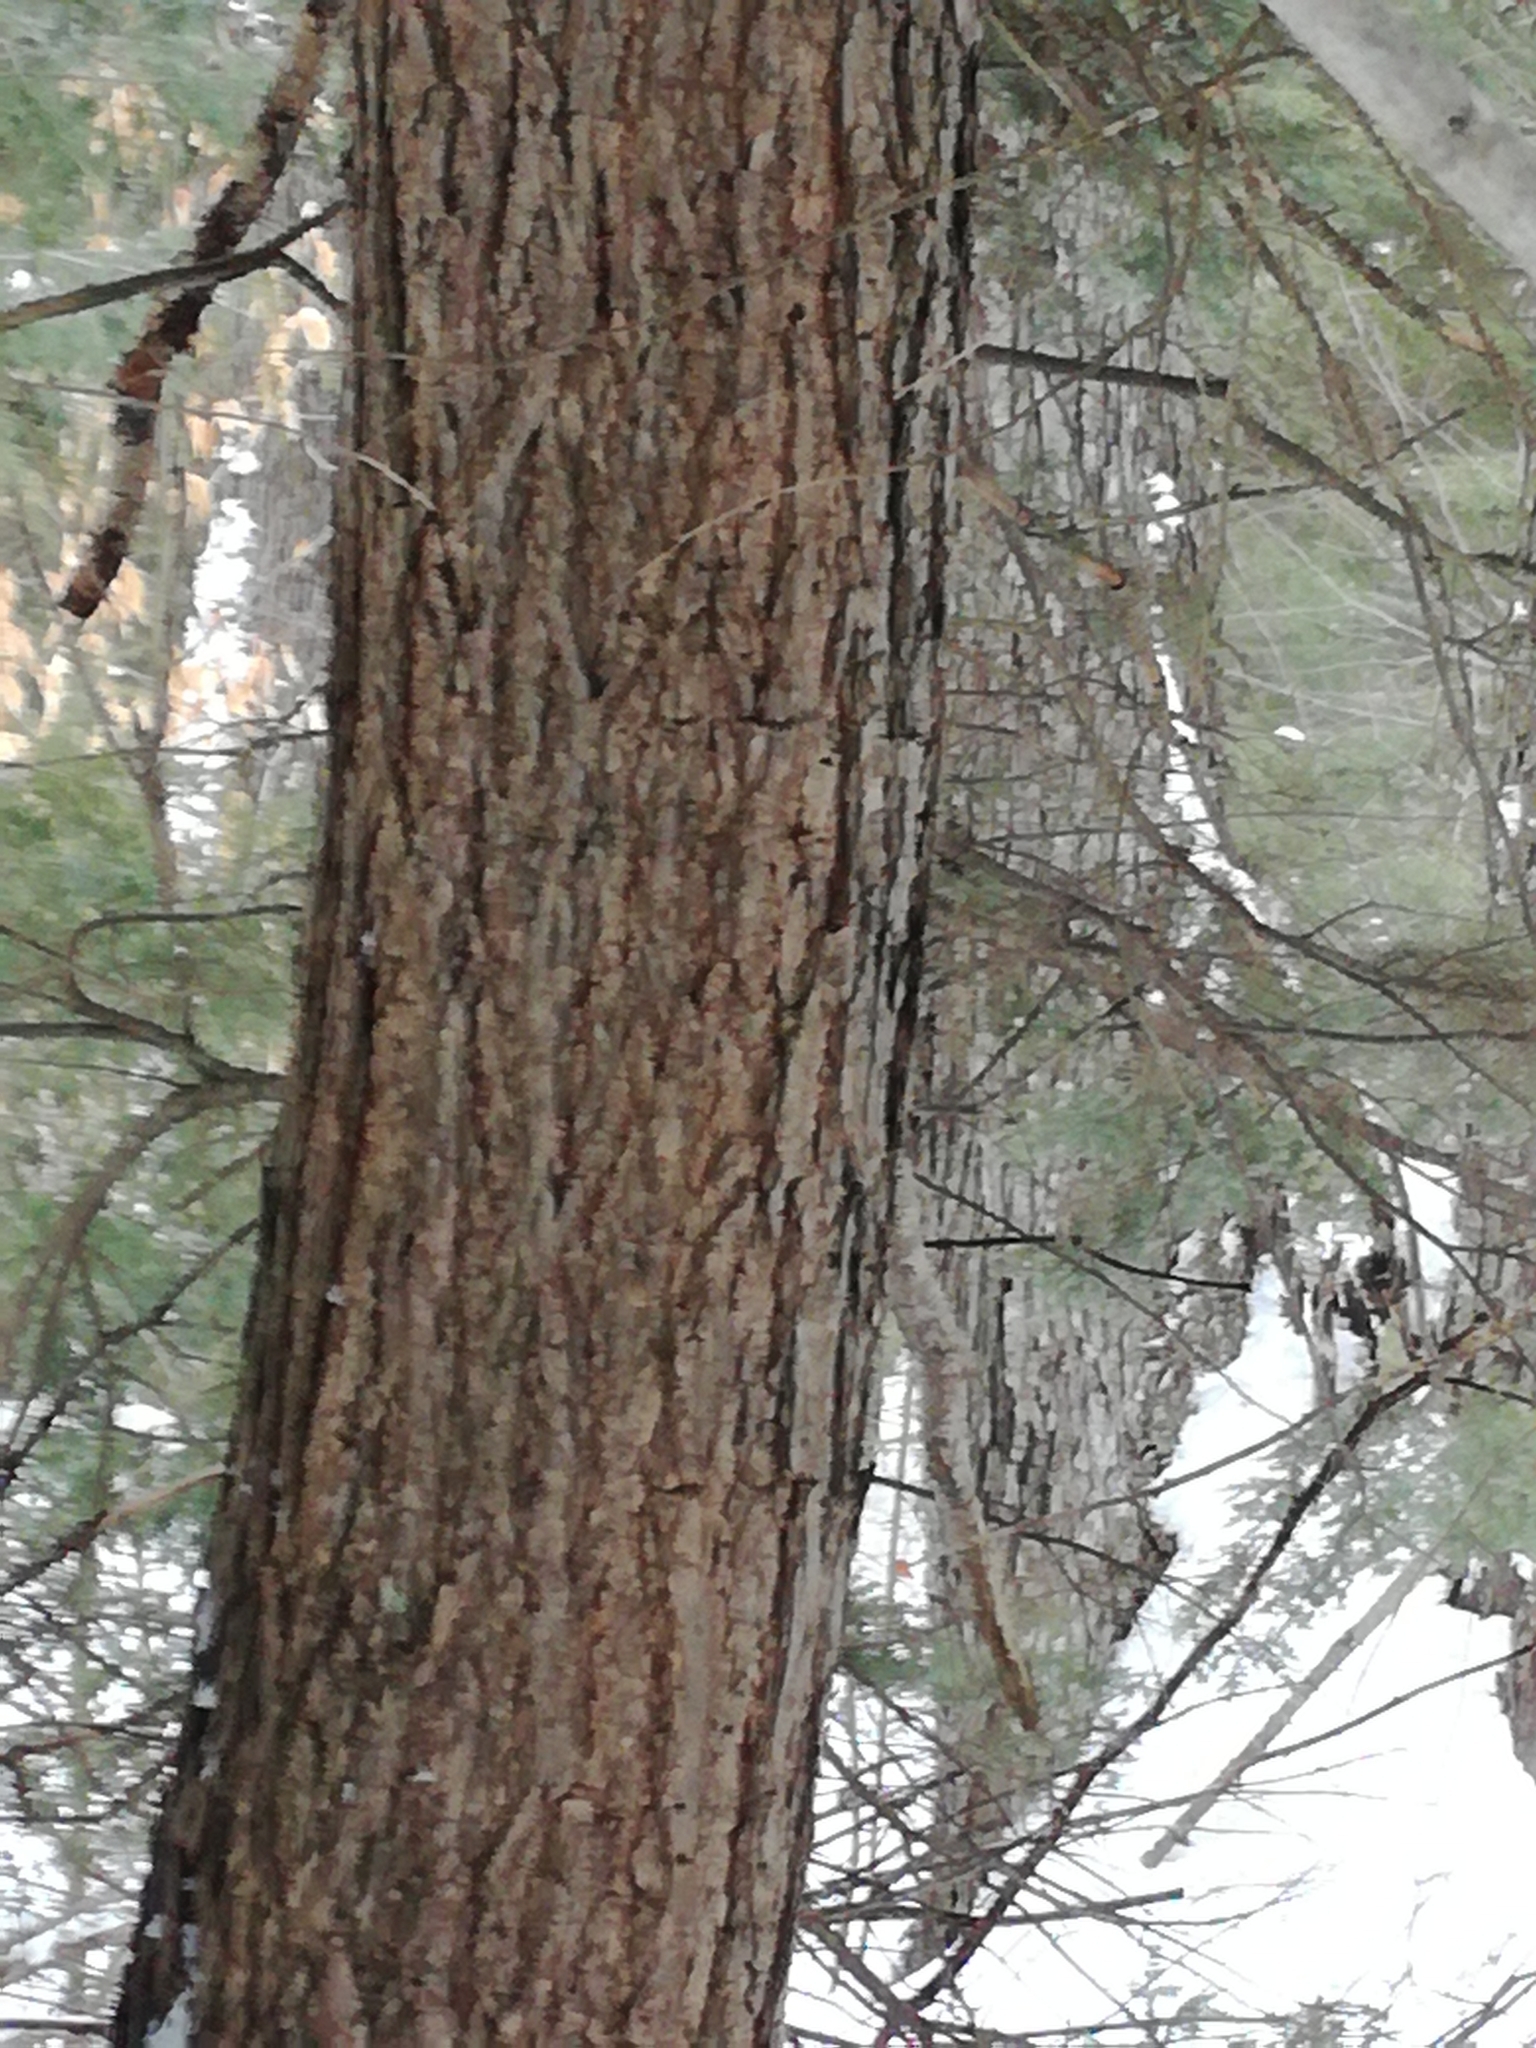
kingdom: Plantae
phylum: Tracheophyta
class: Pinopsida
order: Pinales
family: Pinaceae
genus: Tsuga
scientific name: Tsuga canadensis
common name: Eastern hemlock
